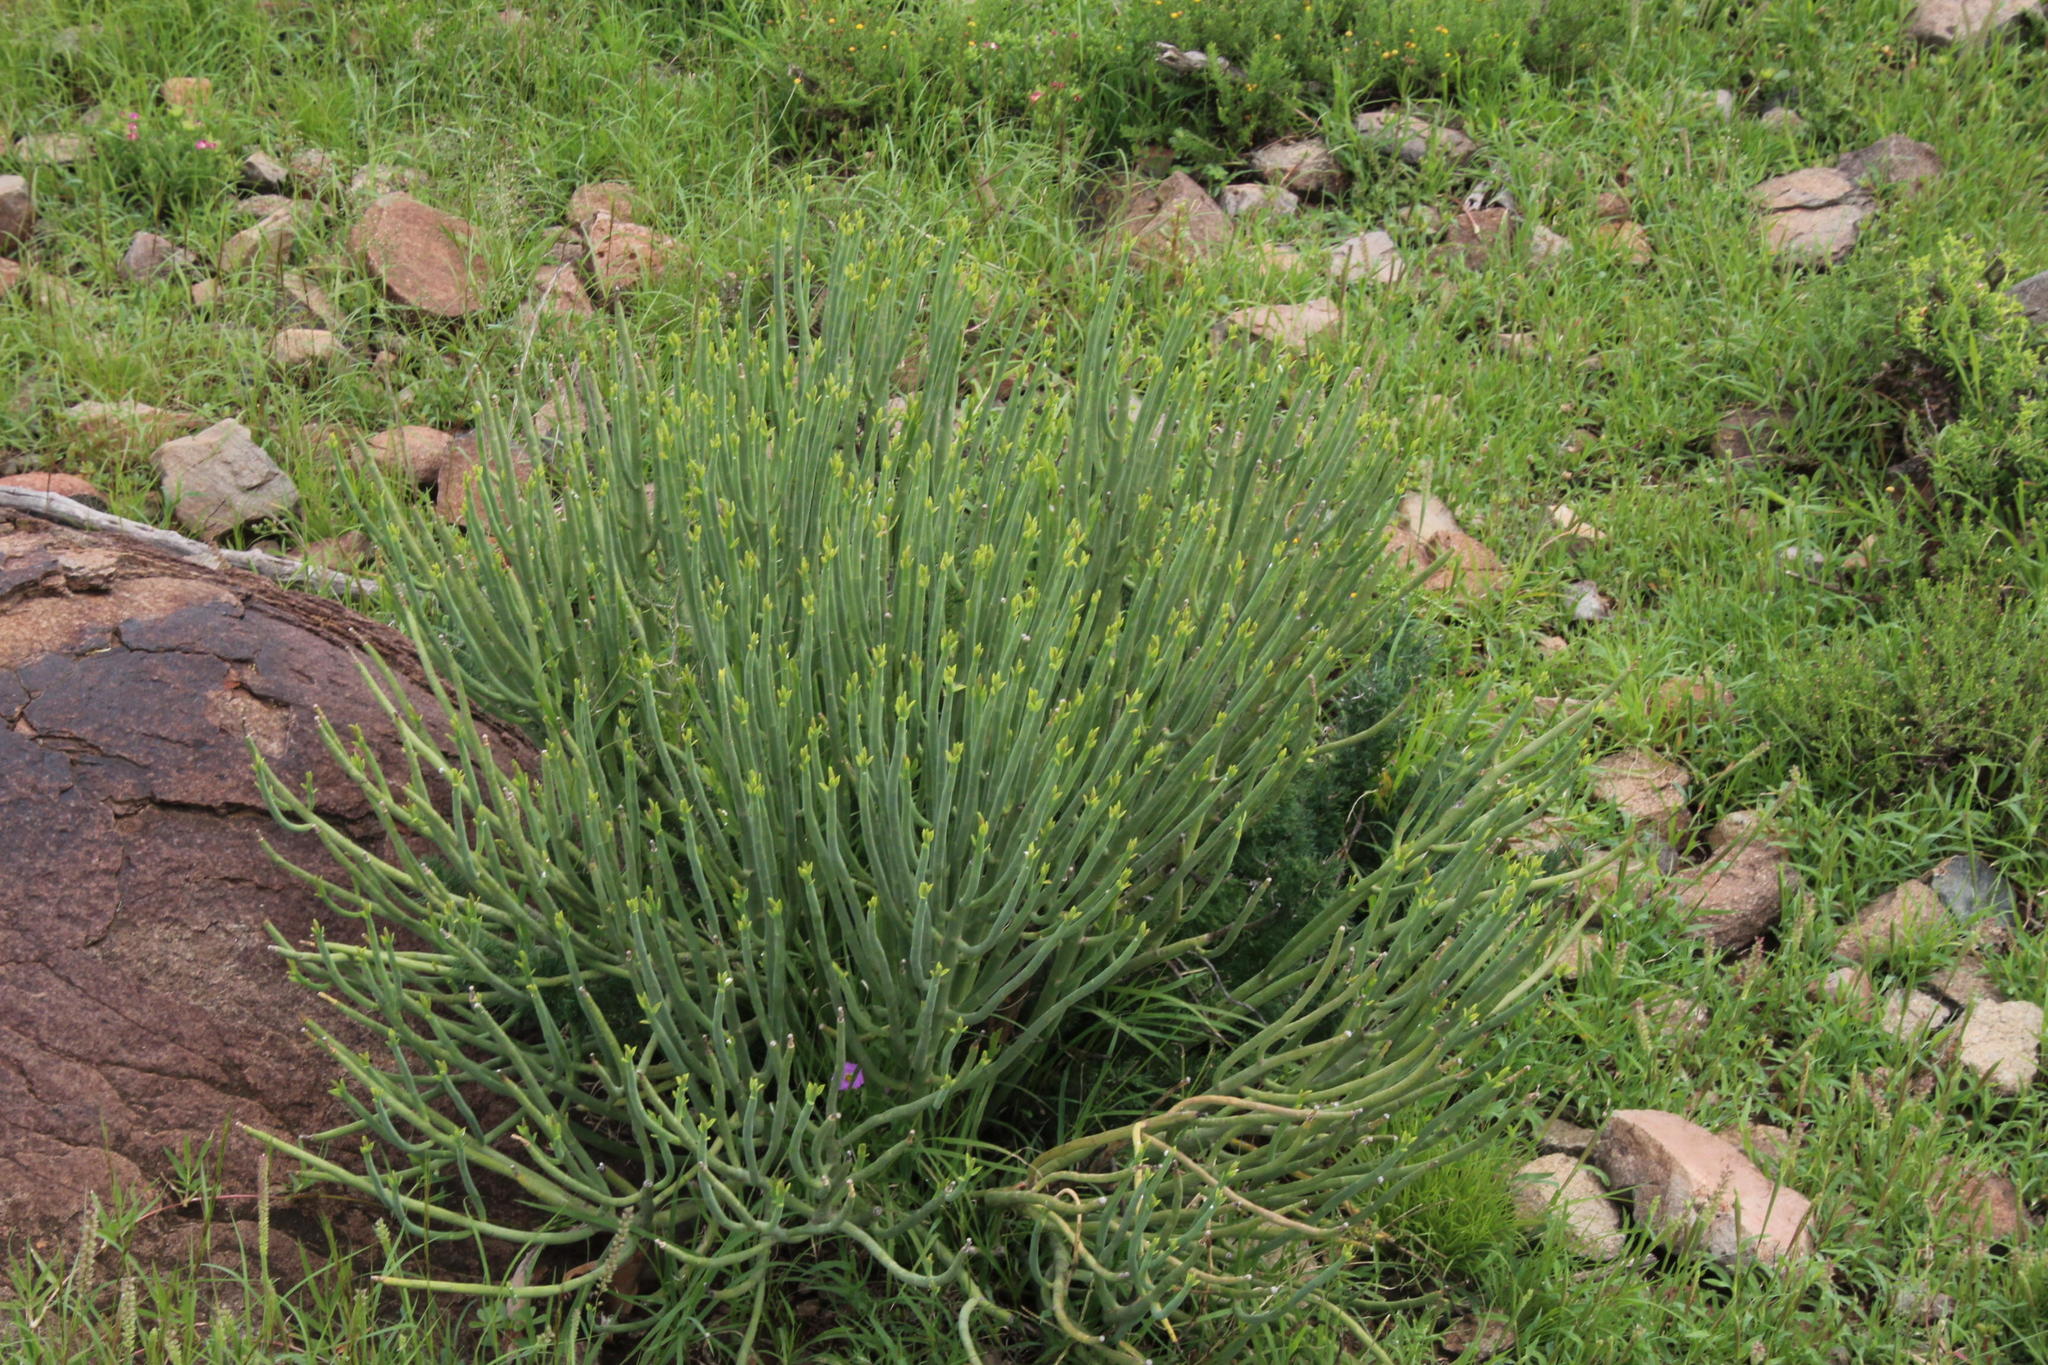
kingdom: Plantae
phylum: Tracheophyta
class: Magnoliopsida
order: Malpighiales
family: Euphorbiaceae
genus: Euphorbia
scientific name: Euphorbia mauritanica
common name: Jackal's-food
